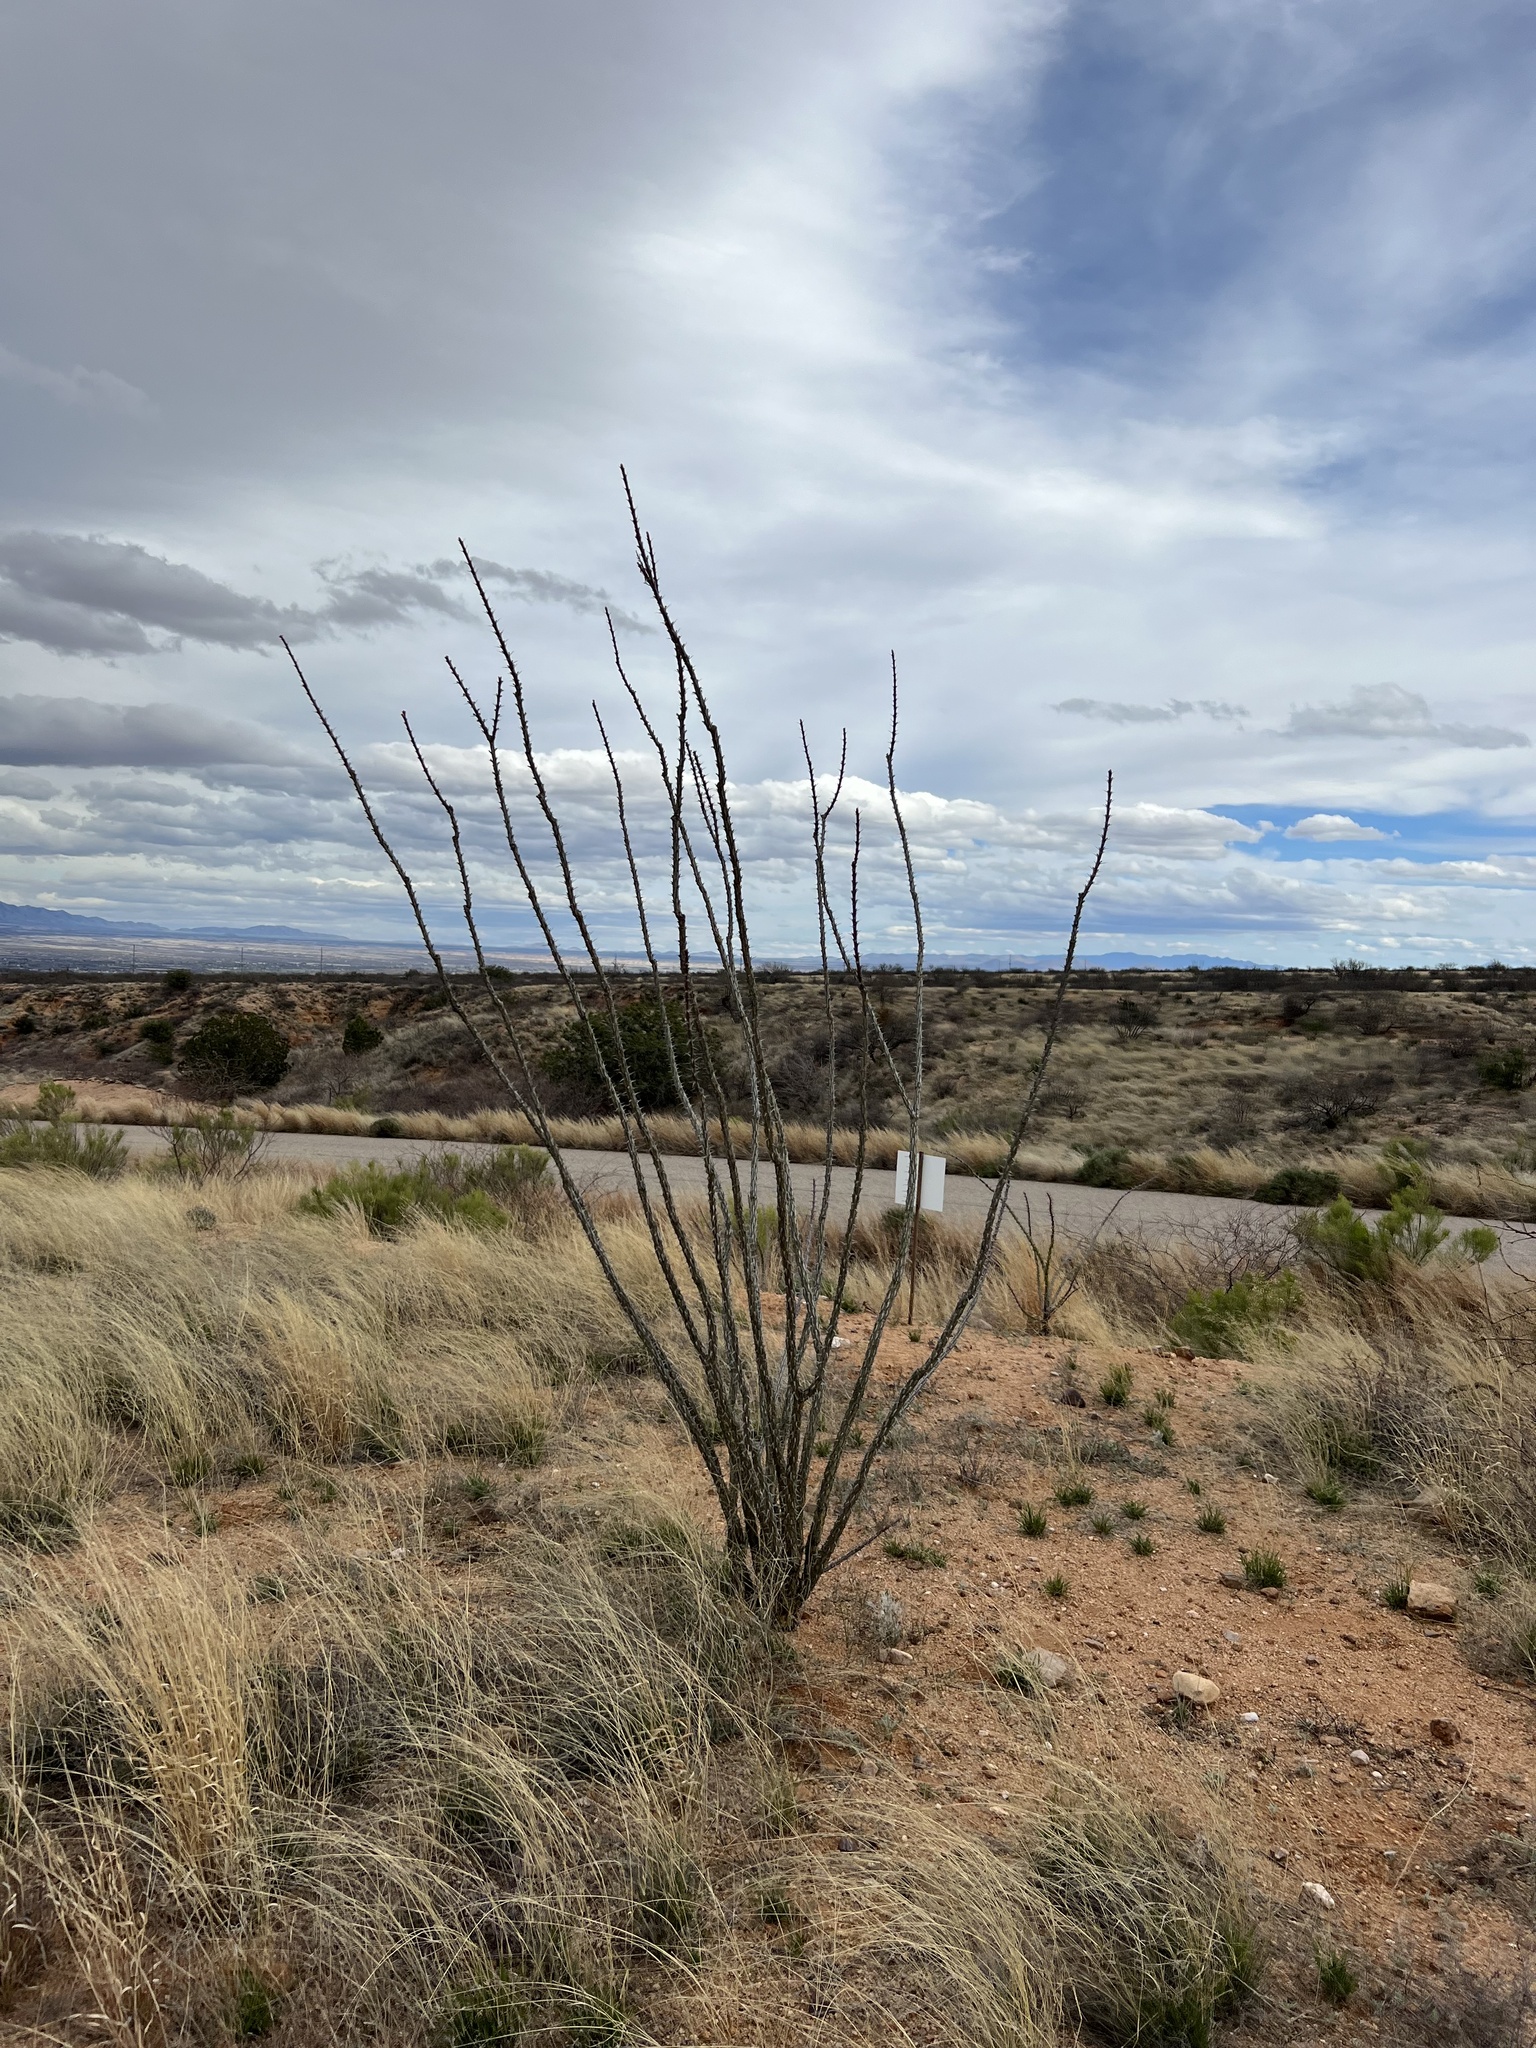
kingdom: Plantae
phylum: Tracheophyta
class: Magnoliopsida
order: Ericales
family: Fouquieriaceae
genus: Fouquieria
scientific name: Fouquieria splendens
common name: Vine-cactus
